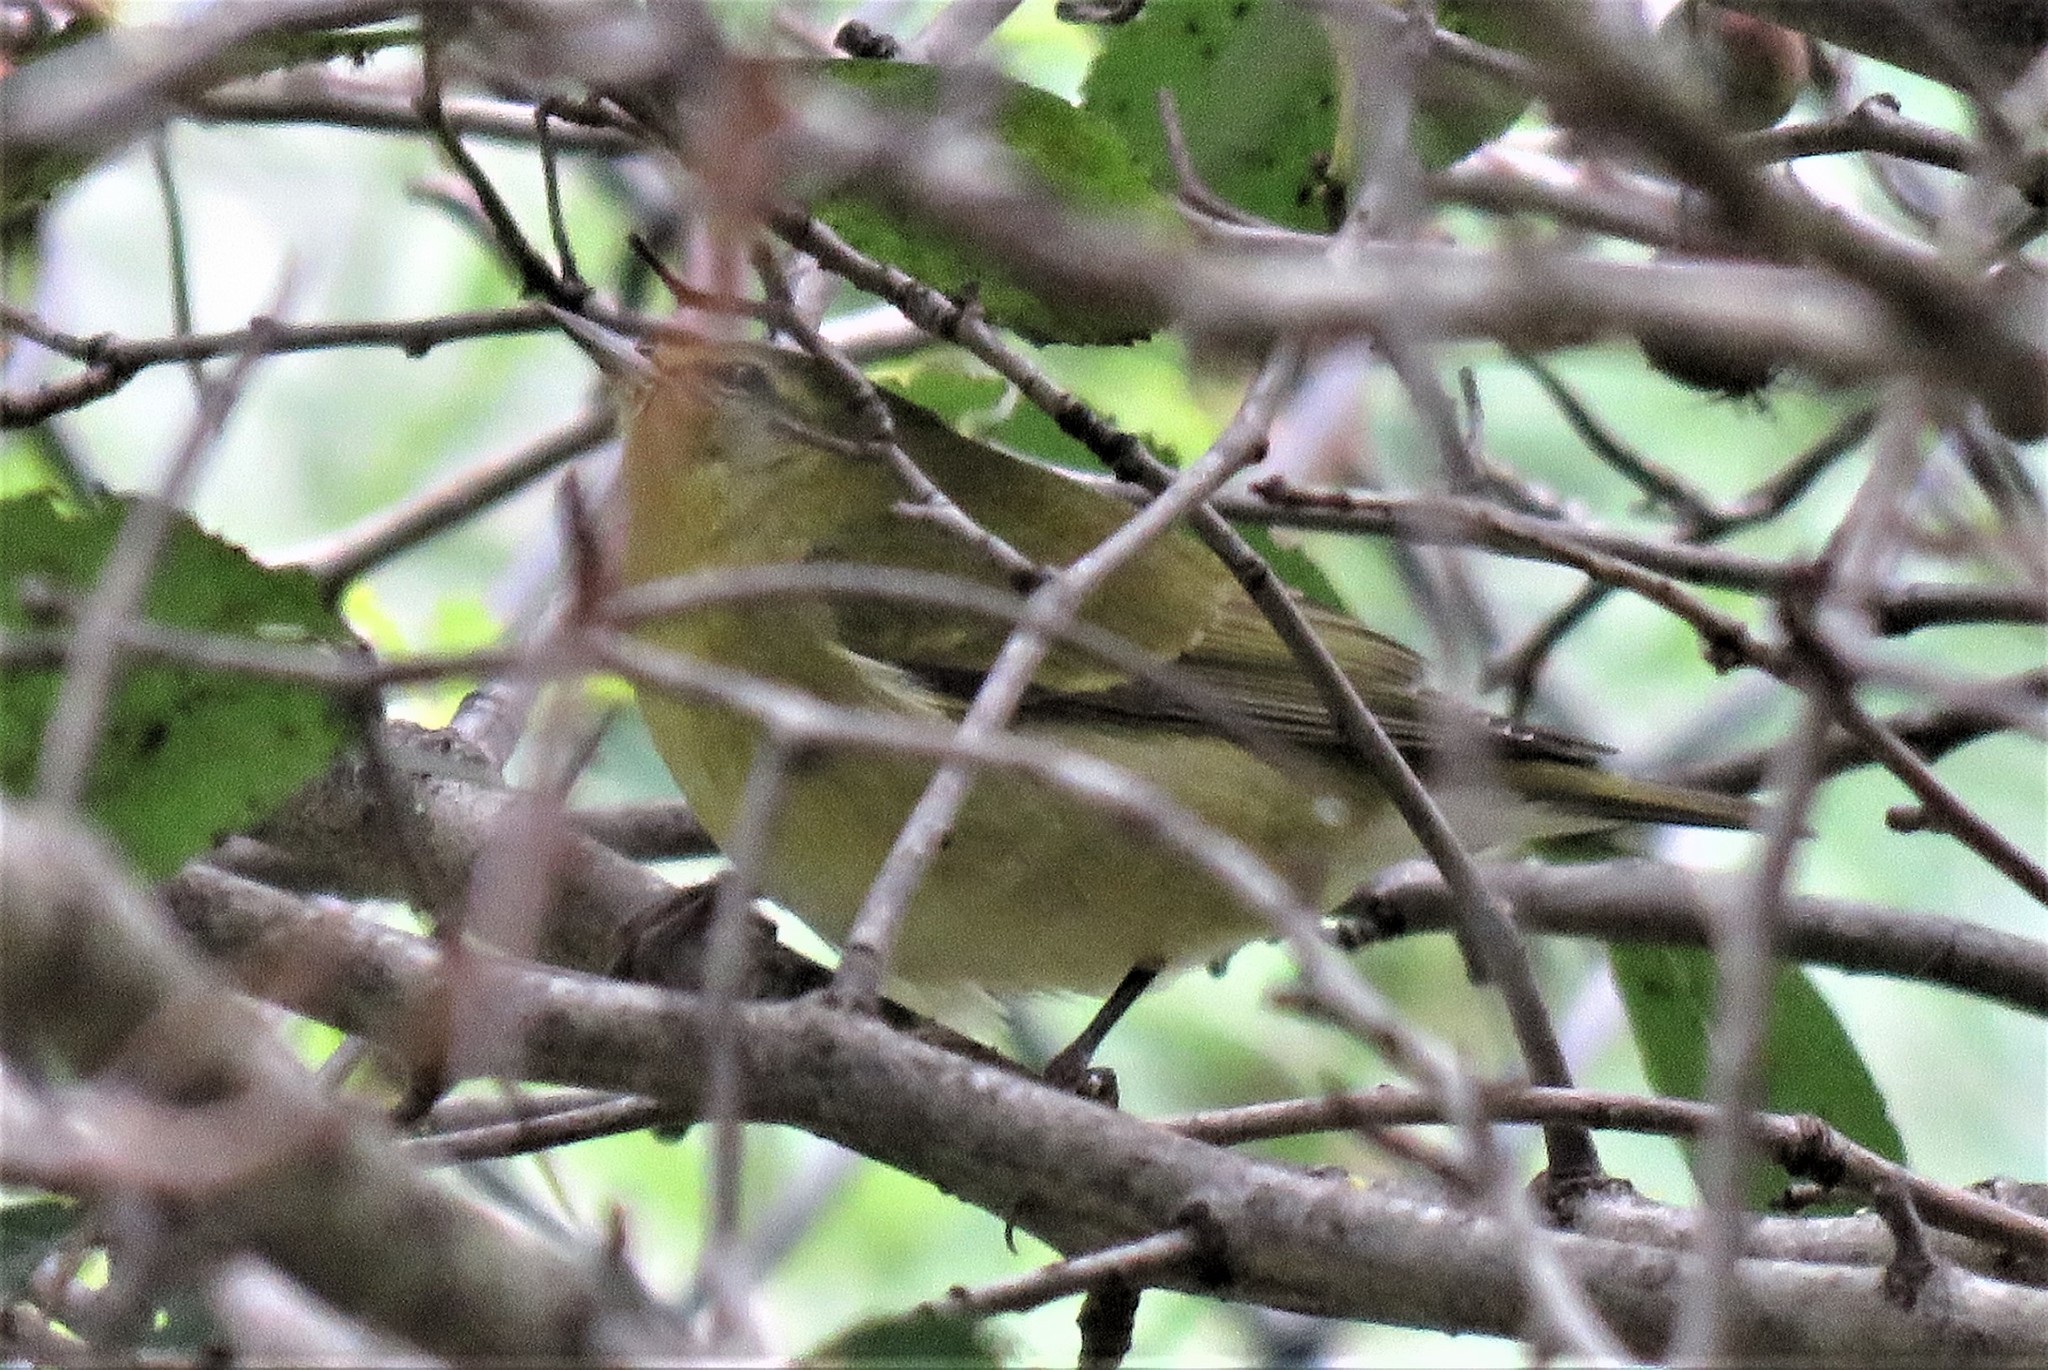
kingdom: Animalia
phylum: Chordata
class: Aves
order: Passeriformes
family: Parulidae
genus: Leiothlypis
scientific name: Leiothlypis peregrina
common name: Tennessee warbler
